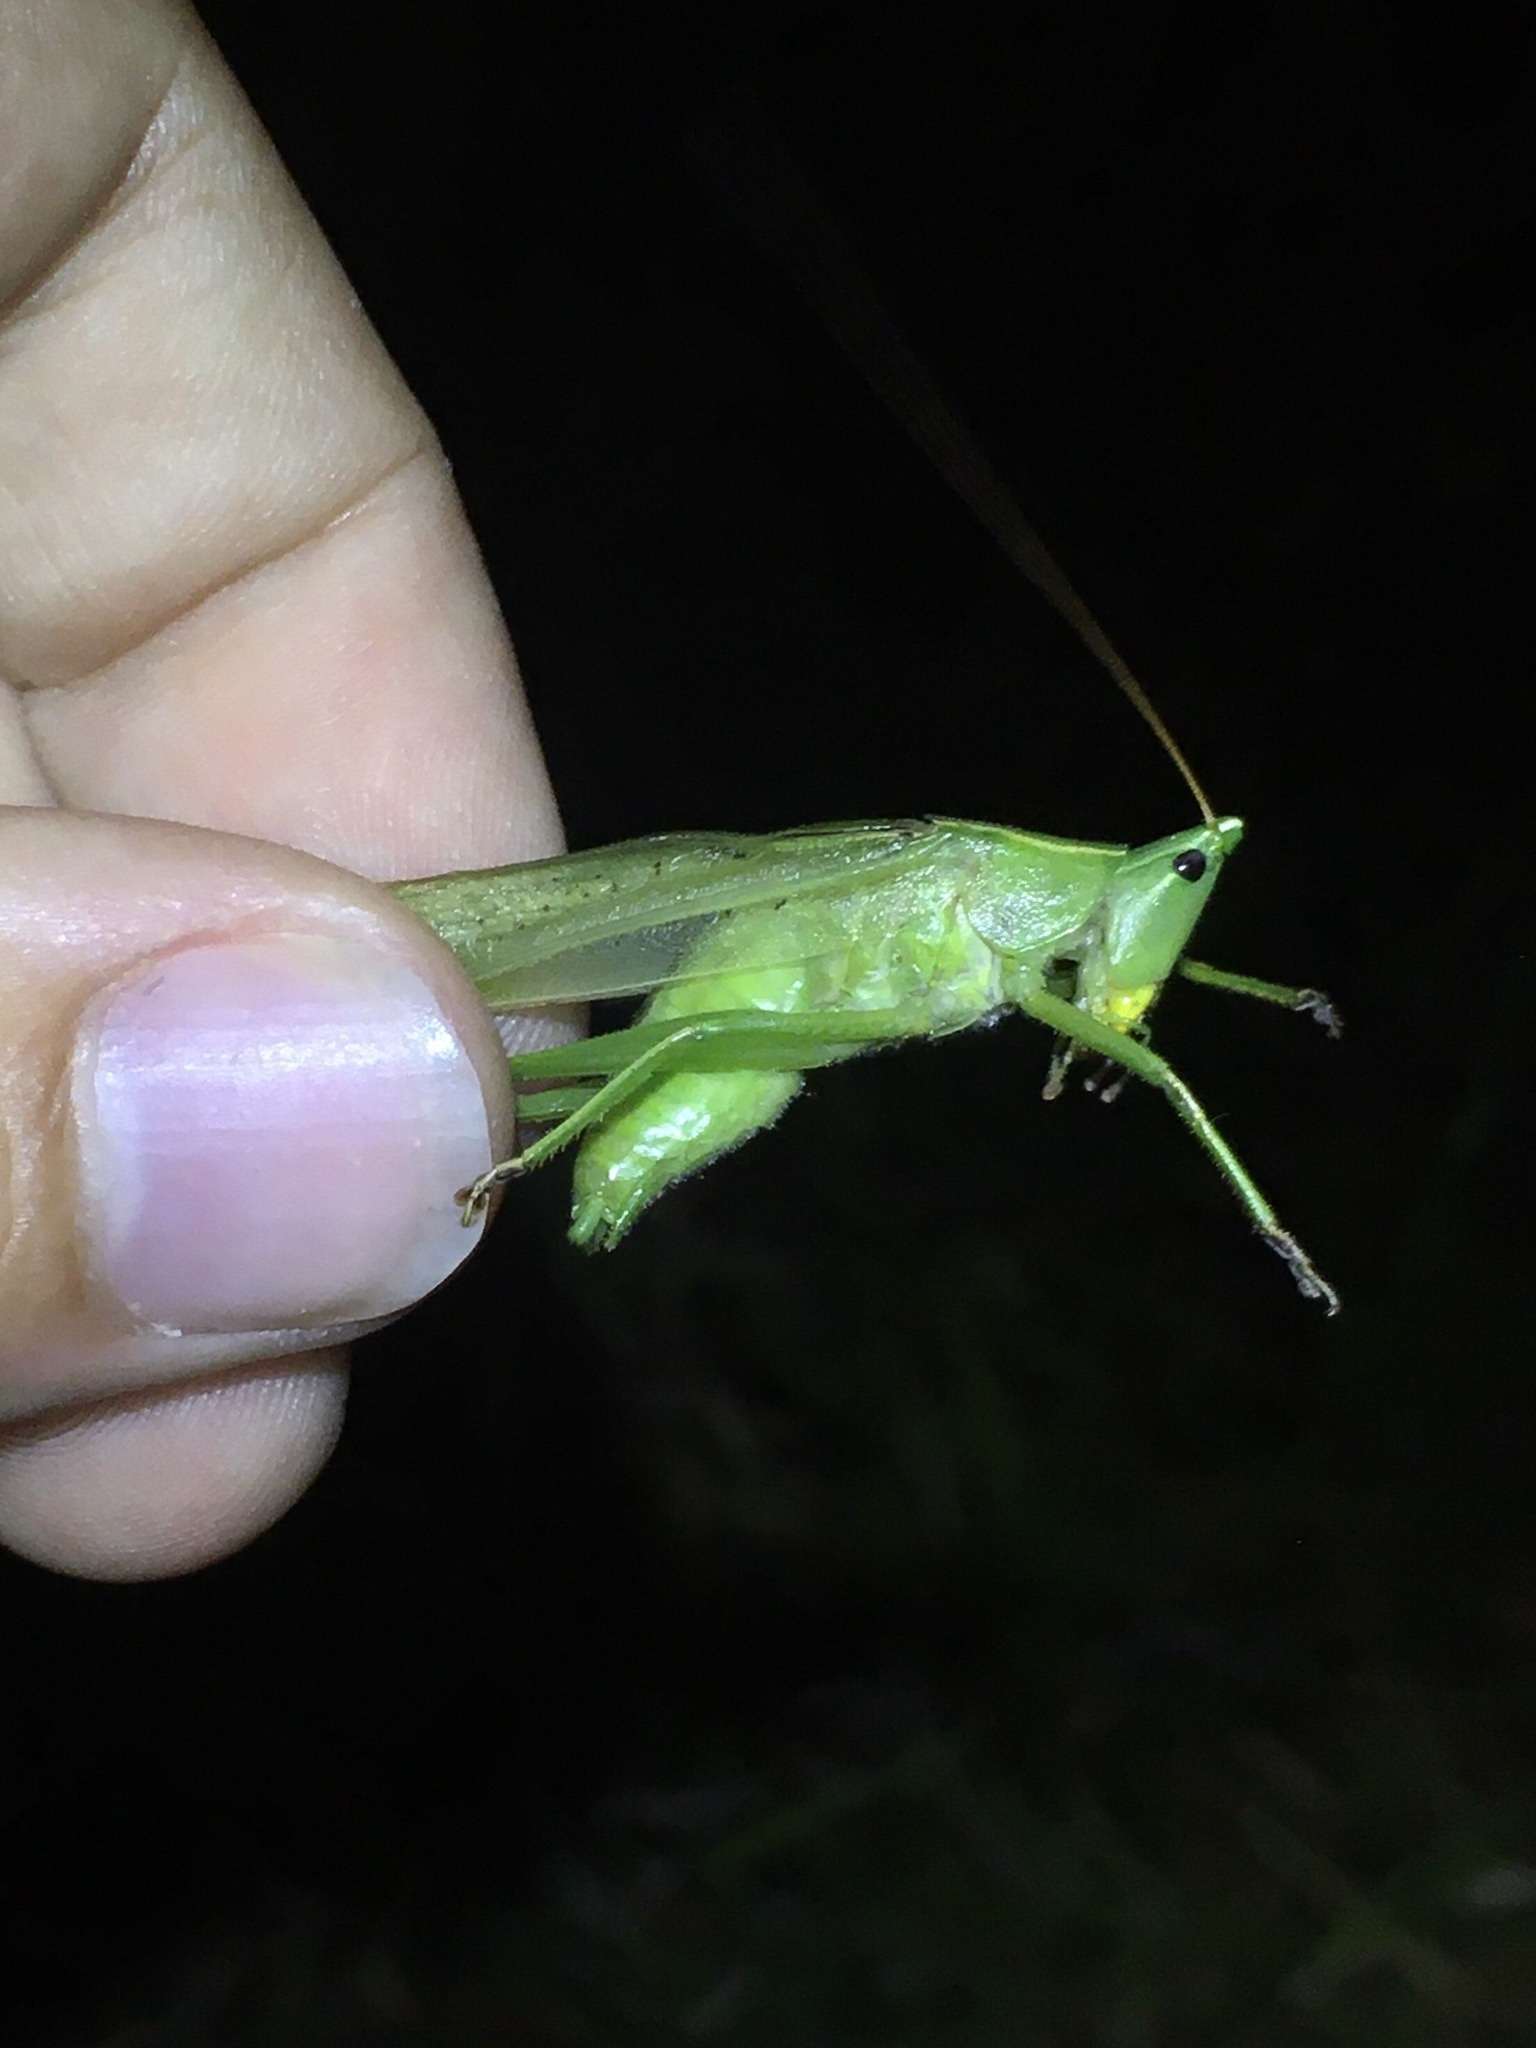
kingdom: Animalia
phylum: Arthropoda
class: Insecta
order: Orthoptera
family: Tettigoniidae
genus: Neoconocephalus
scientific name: Neoconocephalus retusus
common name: Round-tipped conehead
